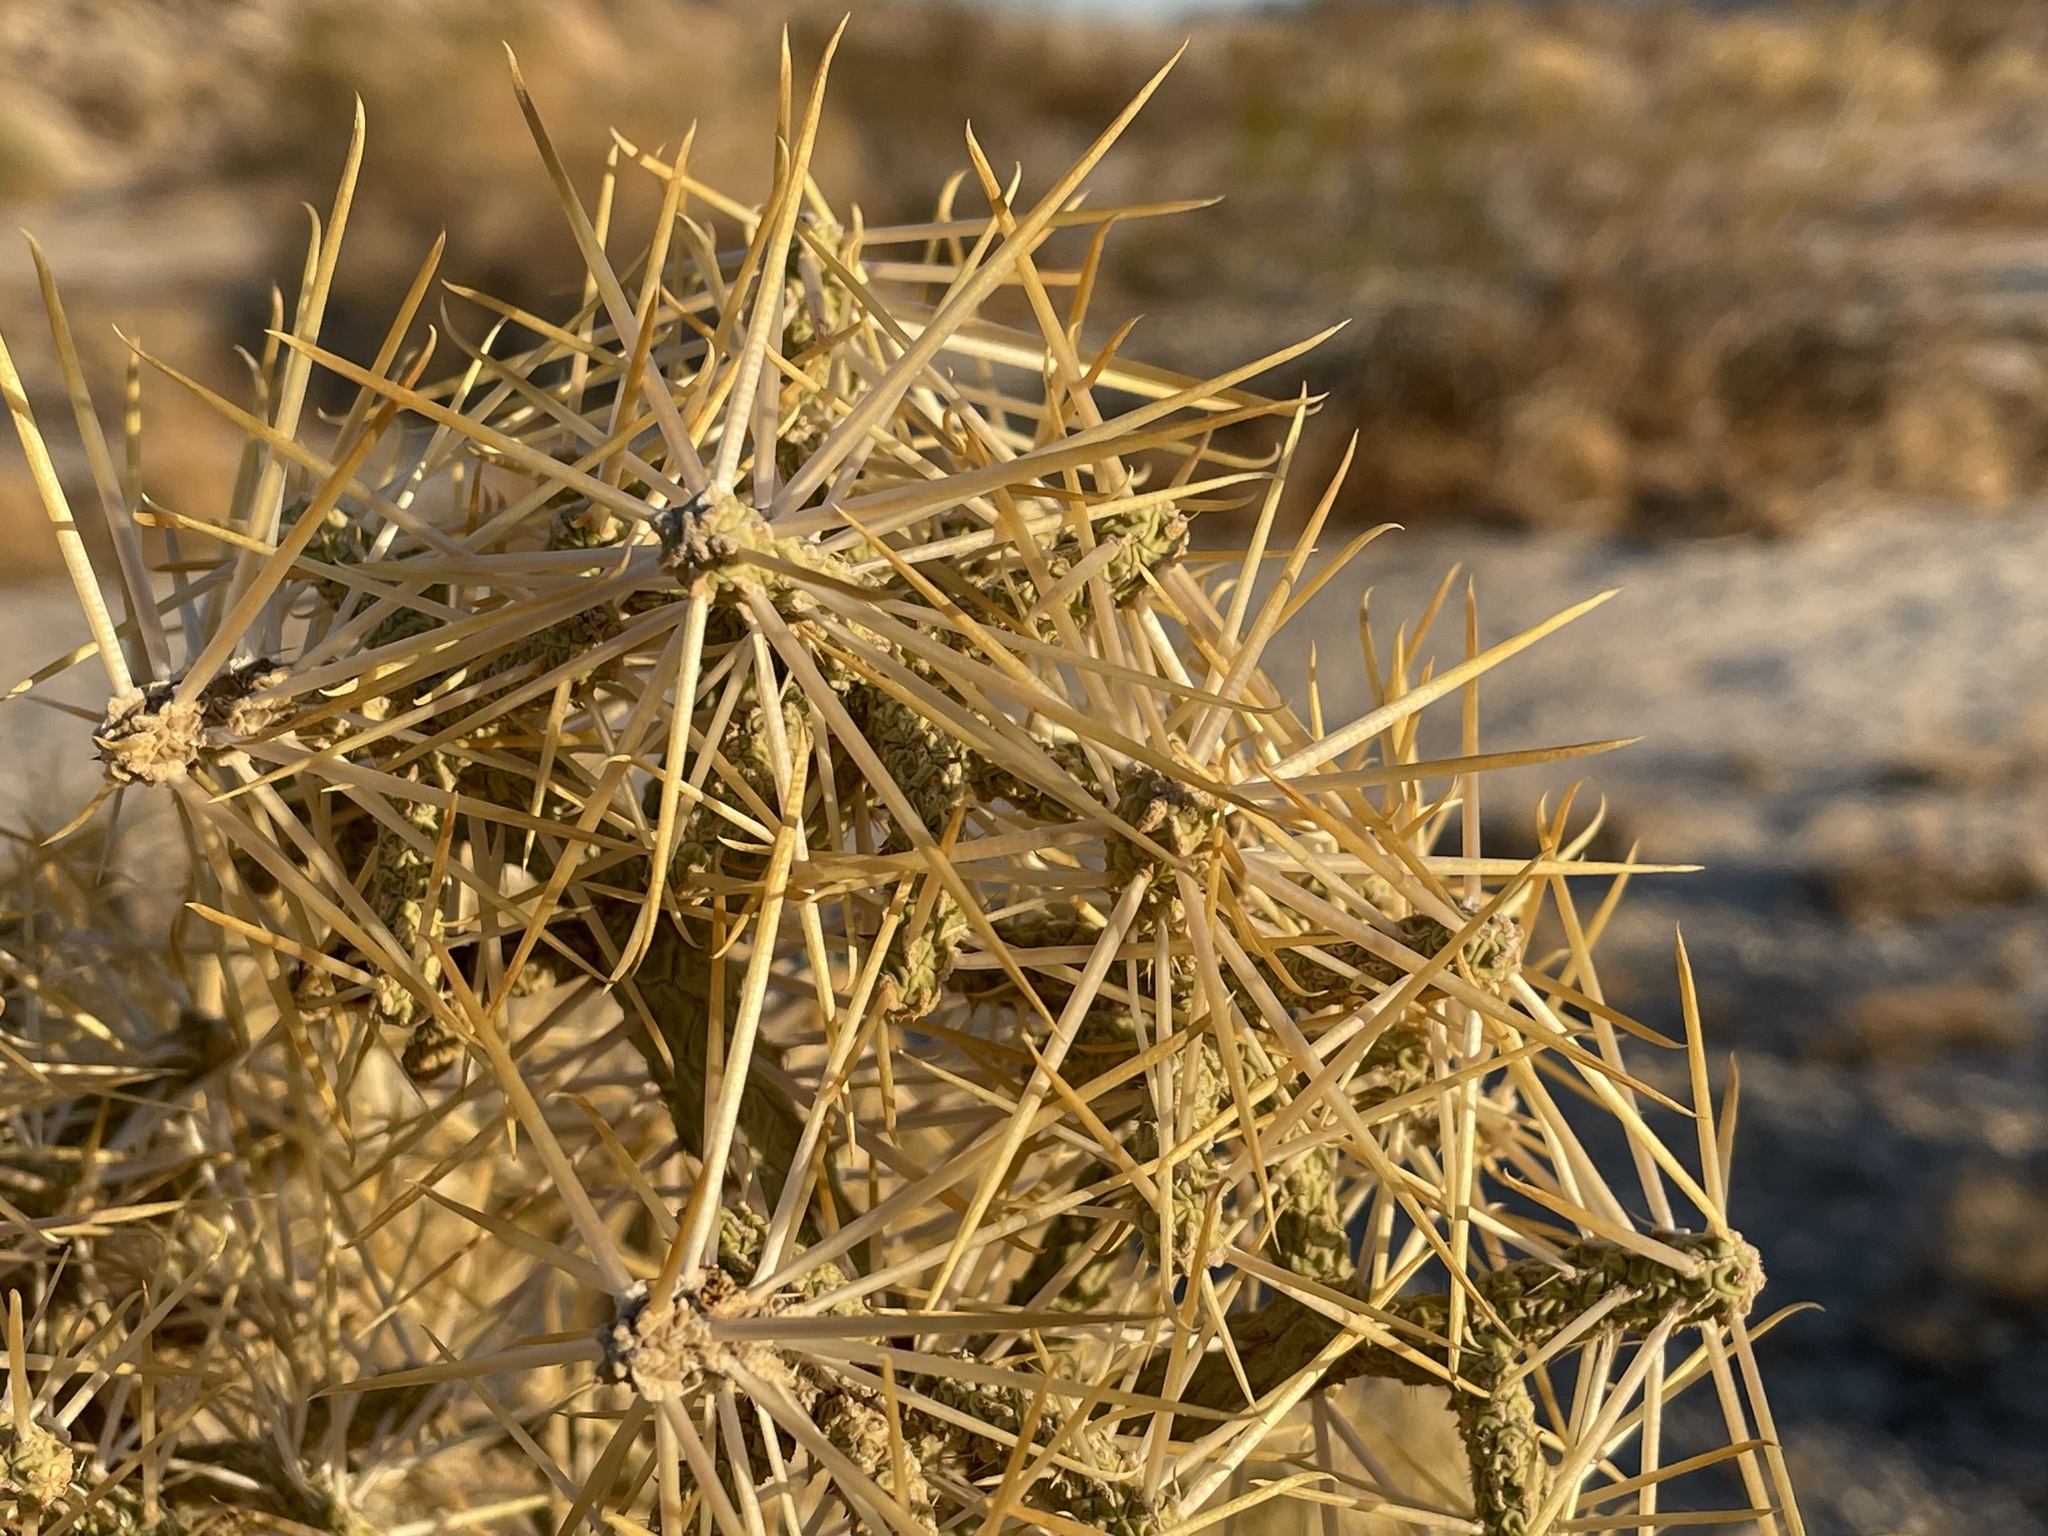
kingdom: Plantae
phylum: Tracheophyta
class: Magnoliopsida
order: Caryophyllales
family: Cactaceae
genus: Cylindropuntia
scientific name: Cylindropuntia ramosissima
